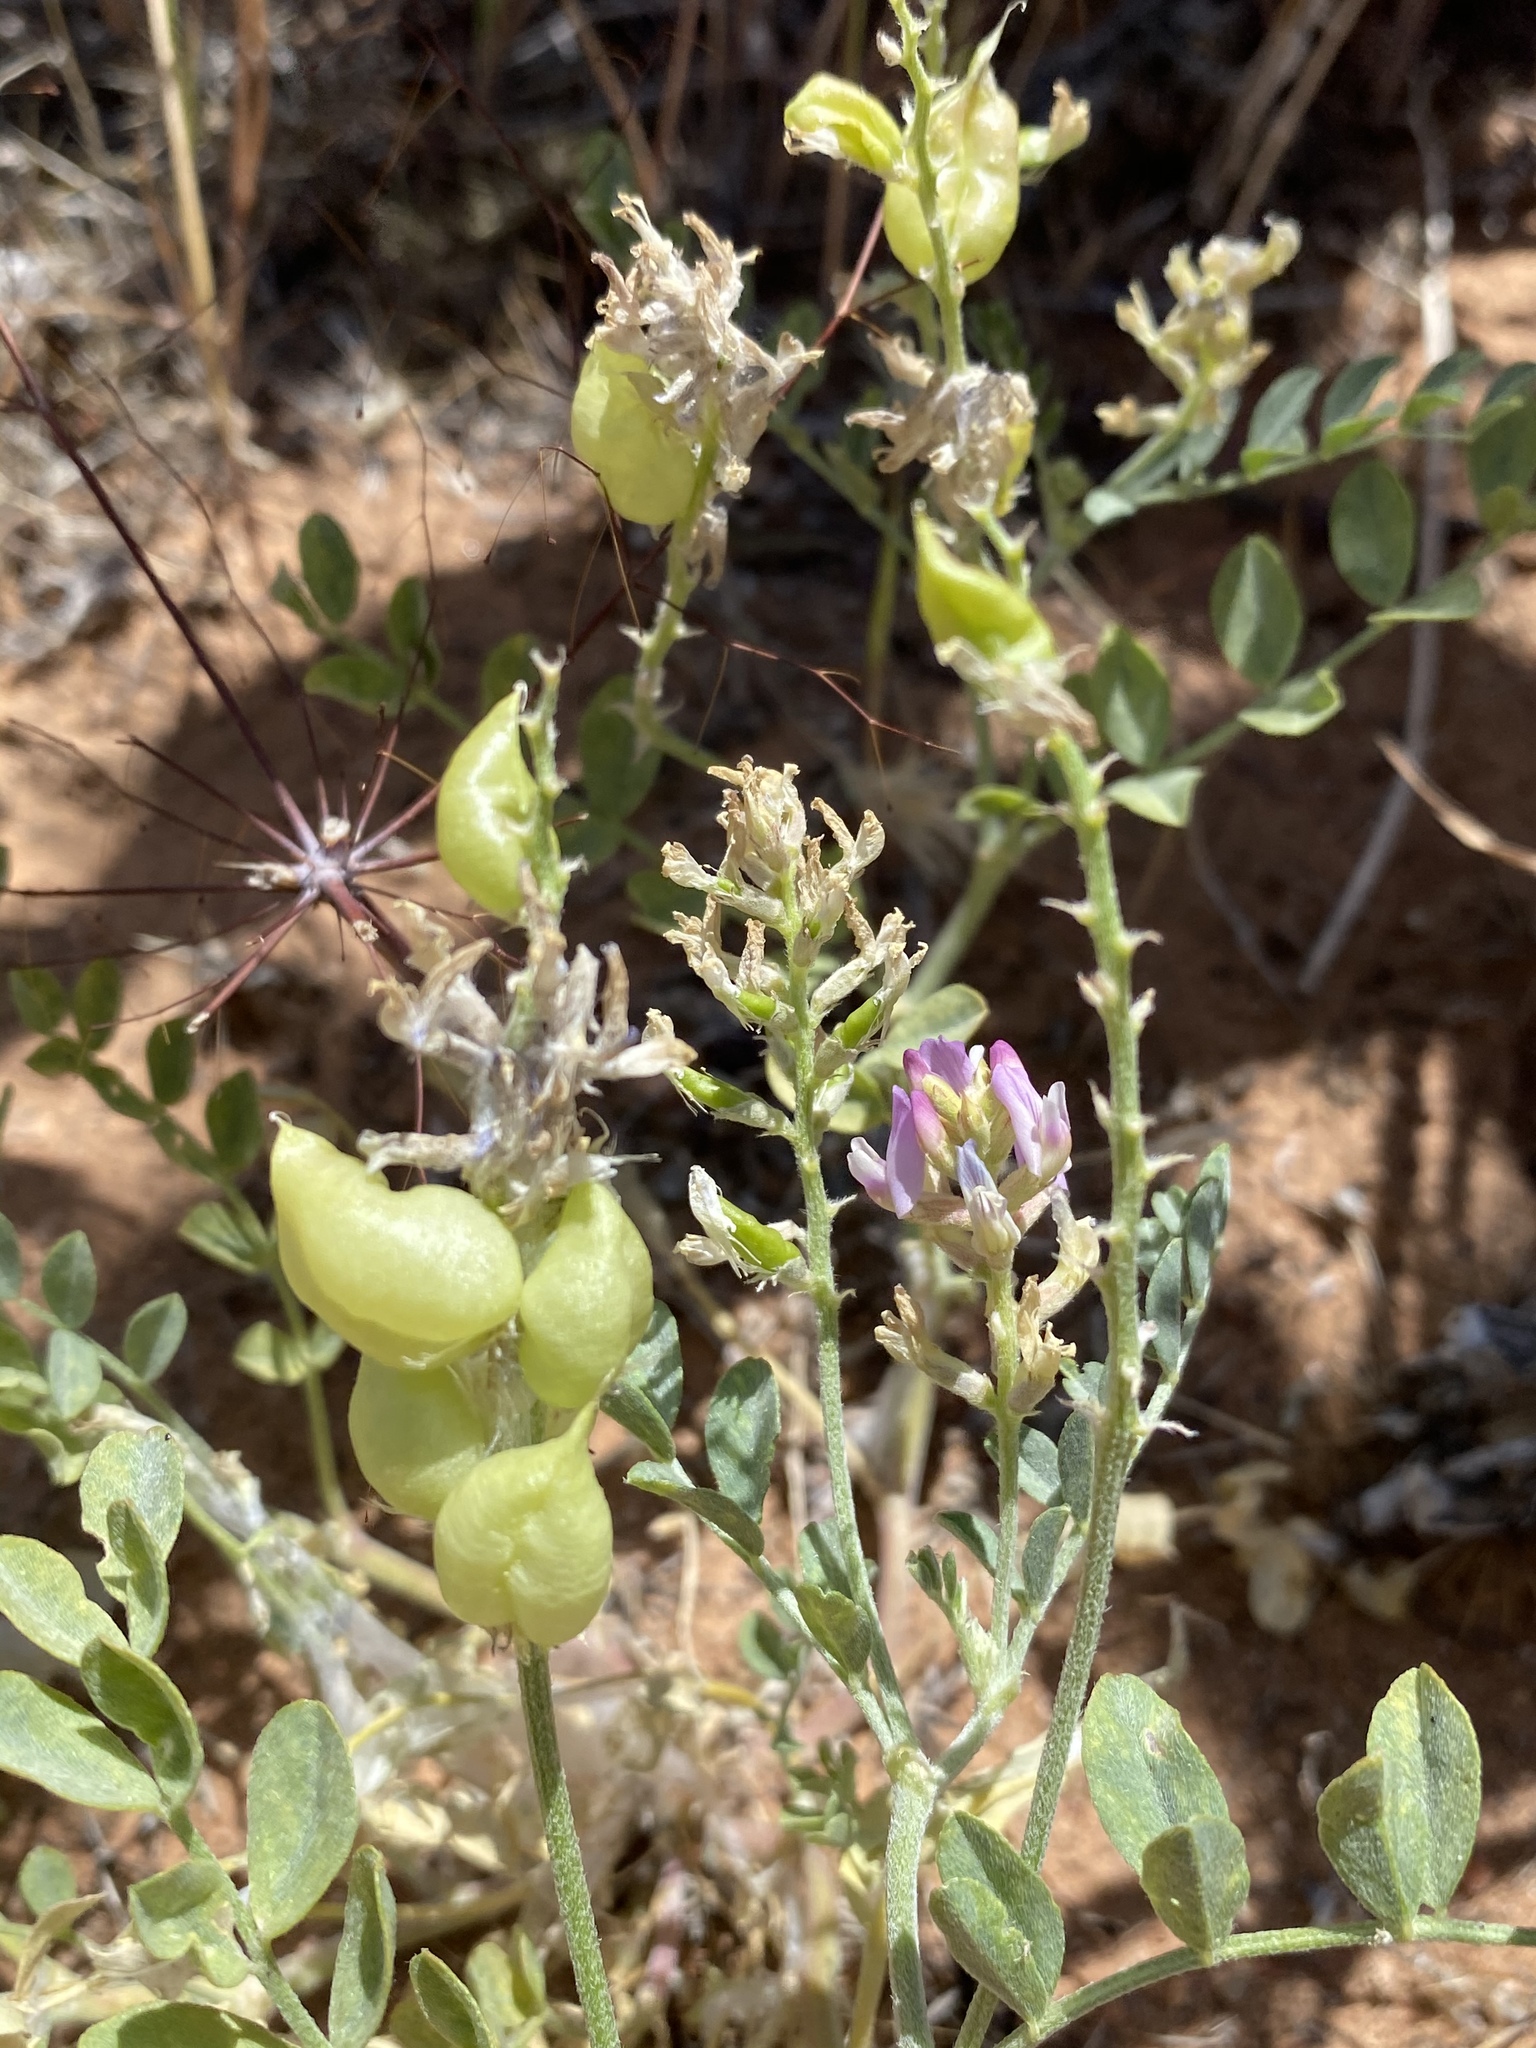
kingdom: Plantae
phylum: Tracheophyta
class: Magnoliopsida
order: Fabales
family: Fabaceae
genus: Astragalus
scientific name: Astragalus lentiginosus
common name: Freckled milkvetch
